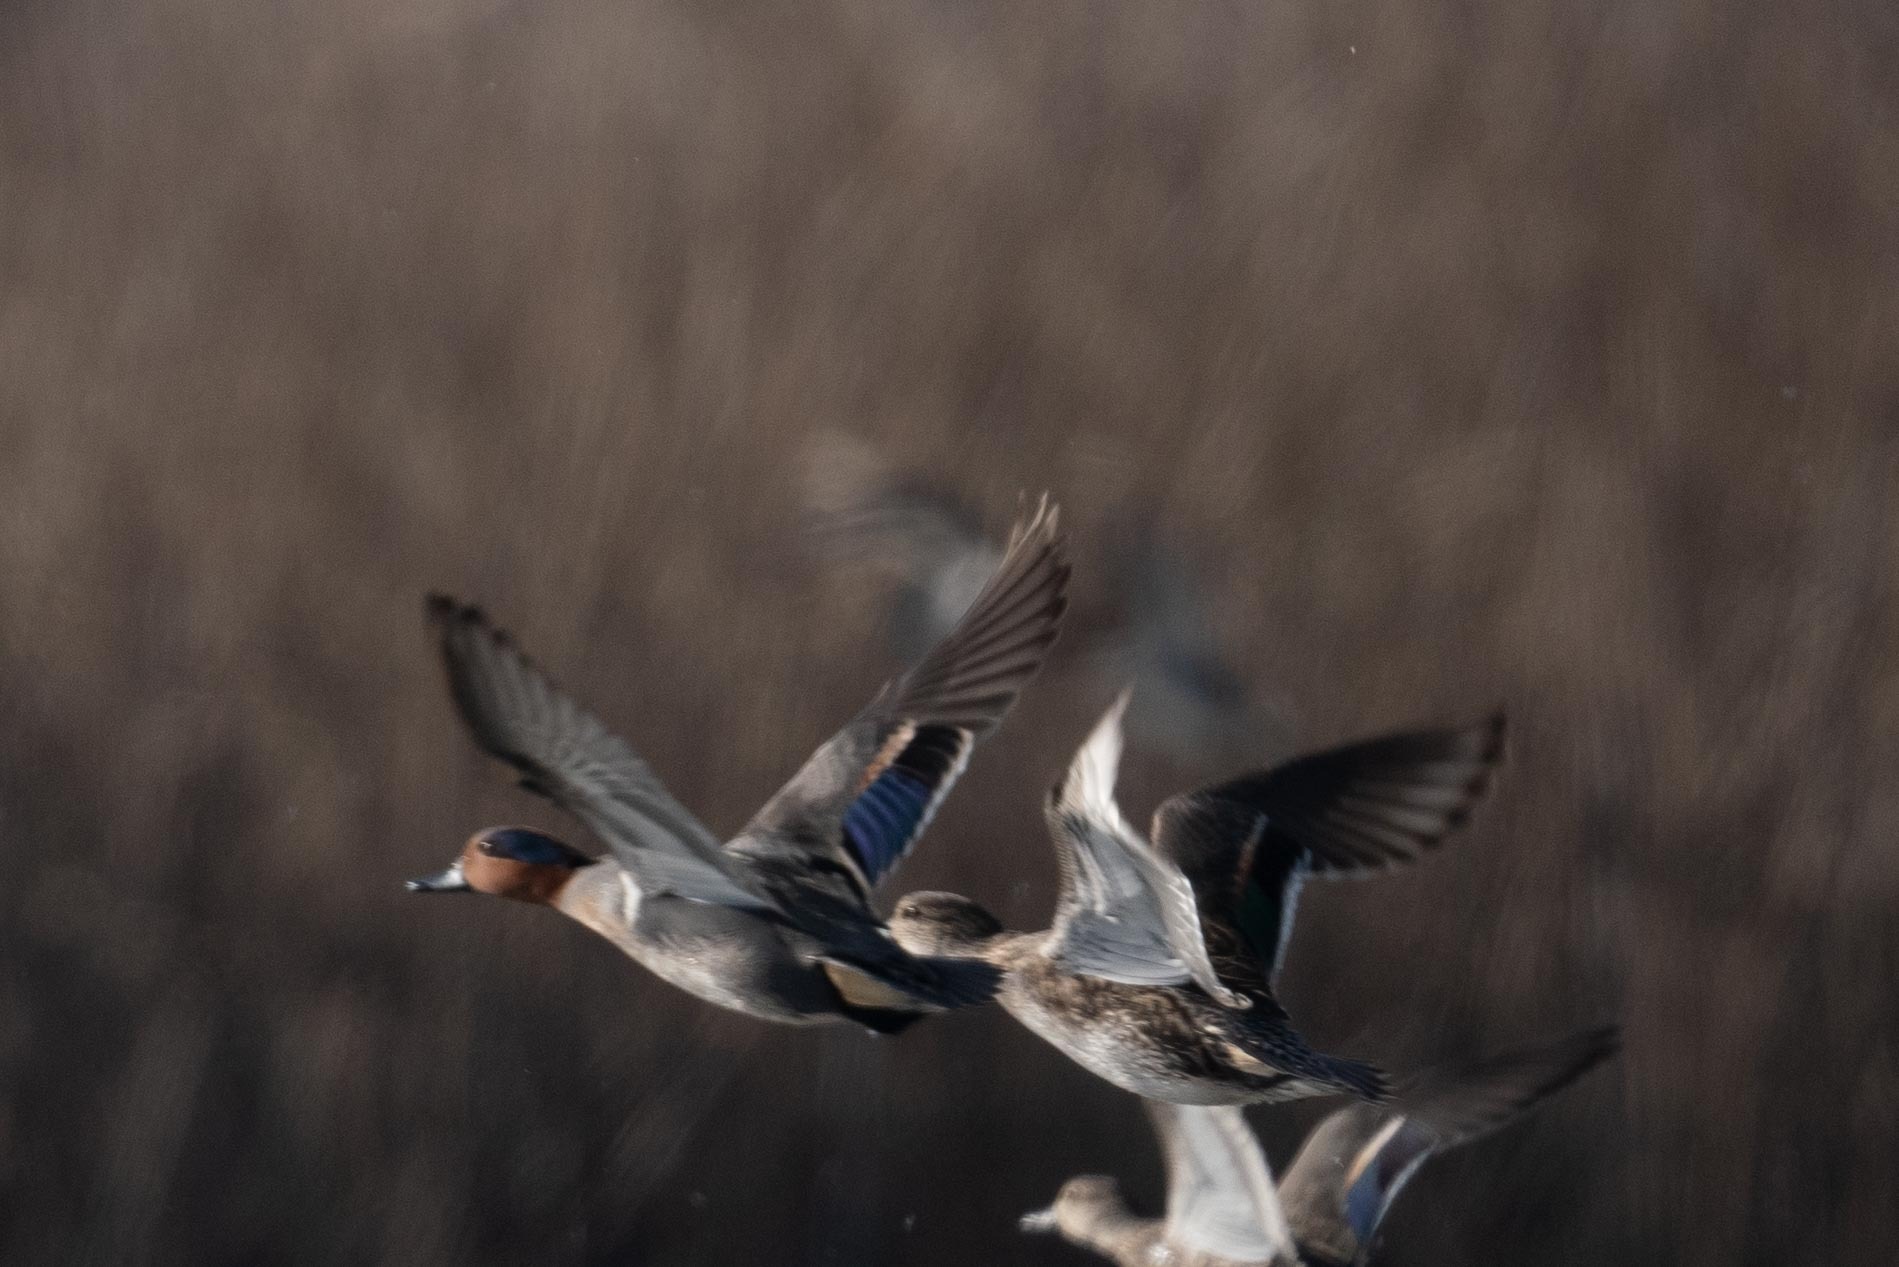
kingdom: Animalia
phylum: Chordata
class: Aves
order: Anseriformes
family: Anatidae
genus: Anas
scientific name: Anas crecca
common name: Eurasian teal
